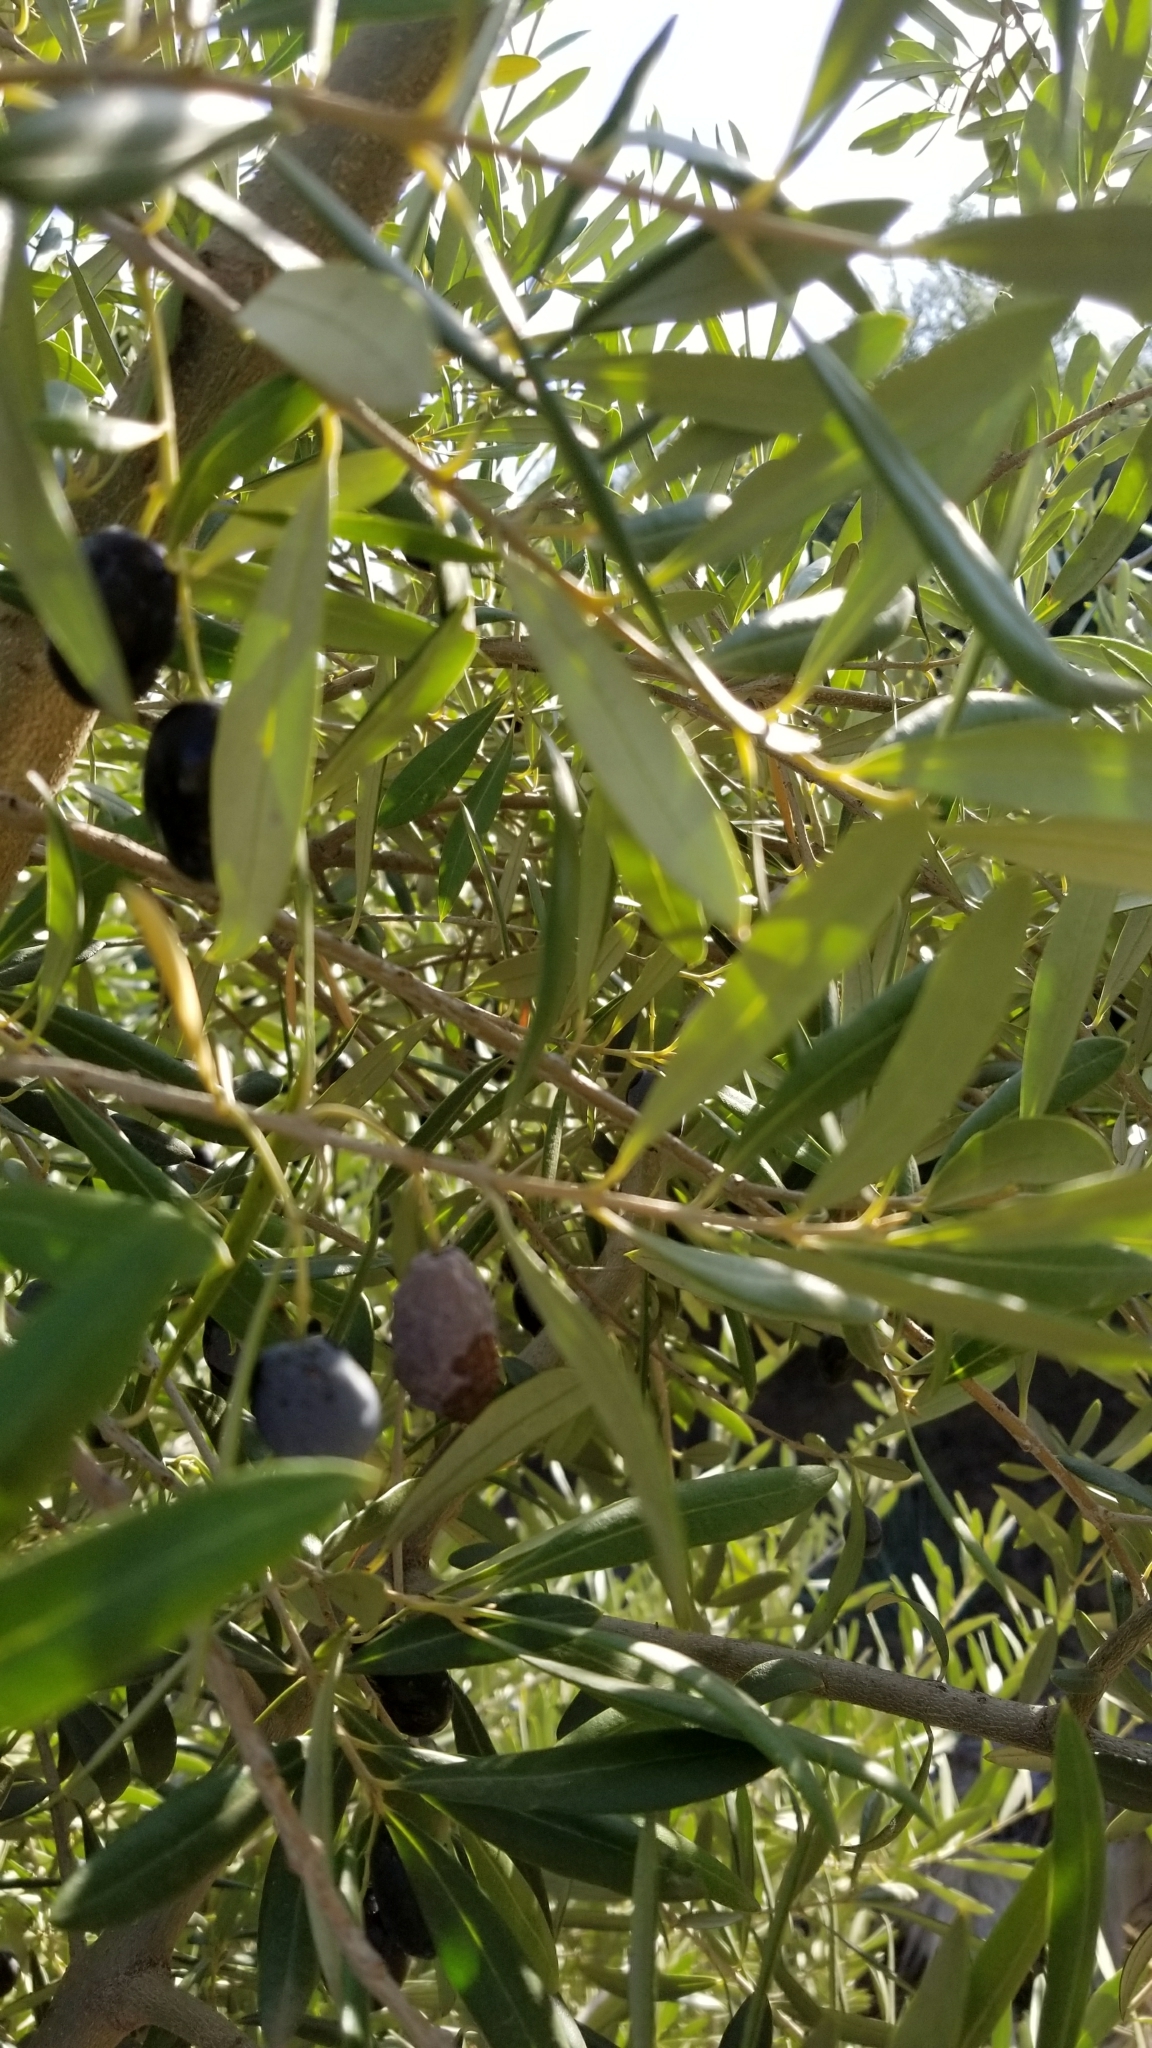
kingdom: Plantae
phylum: Tracheophyta
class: Magnoliopsida
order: Lamiales
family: Oleaceae
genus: Olea
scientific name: Olea europaea
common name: Olive
